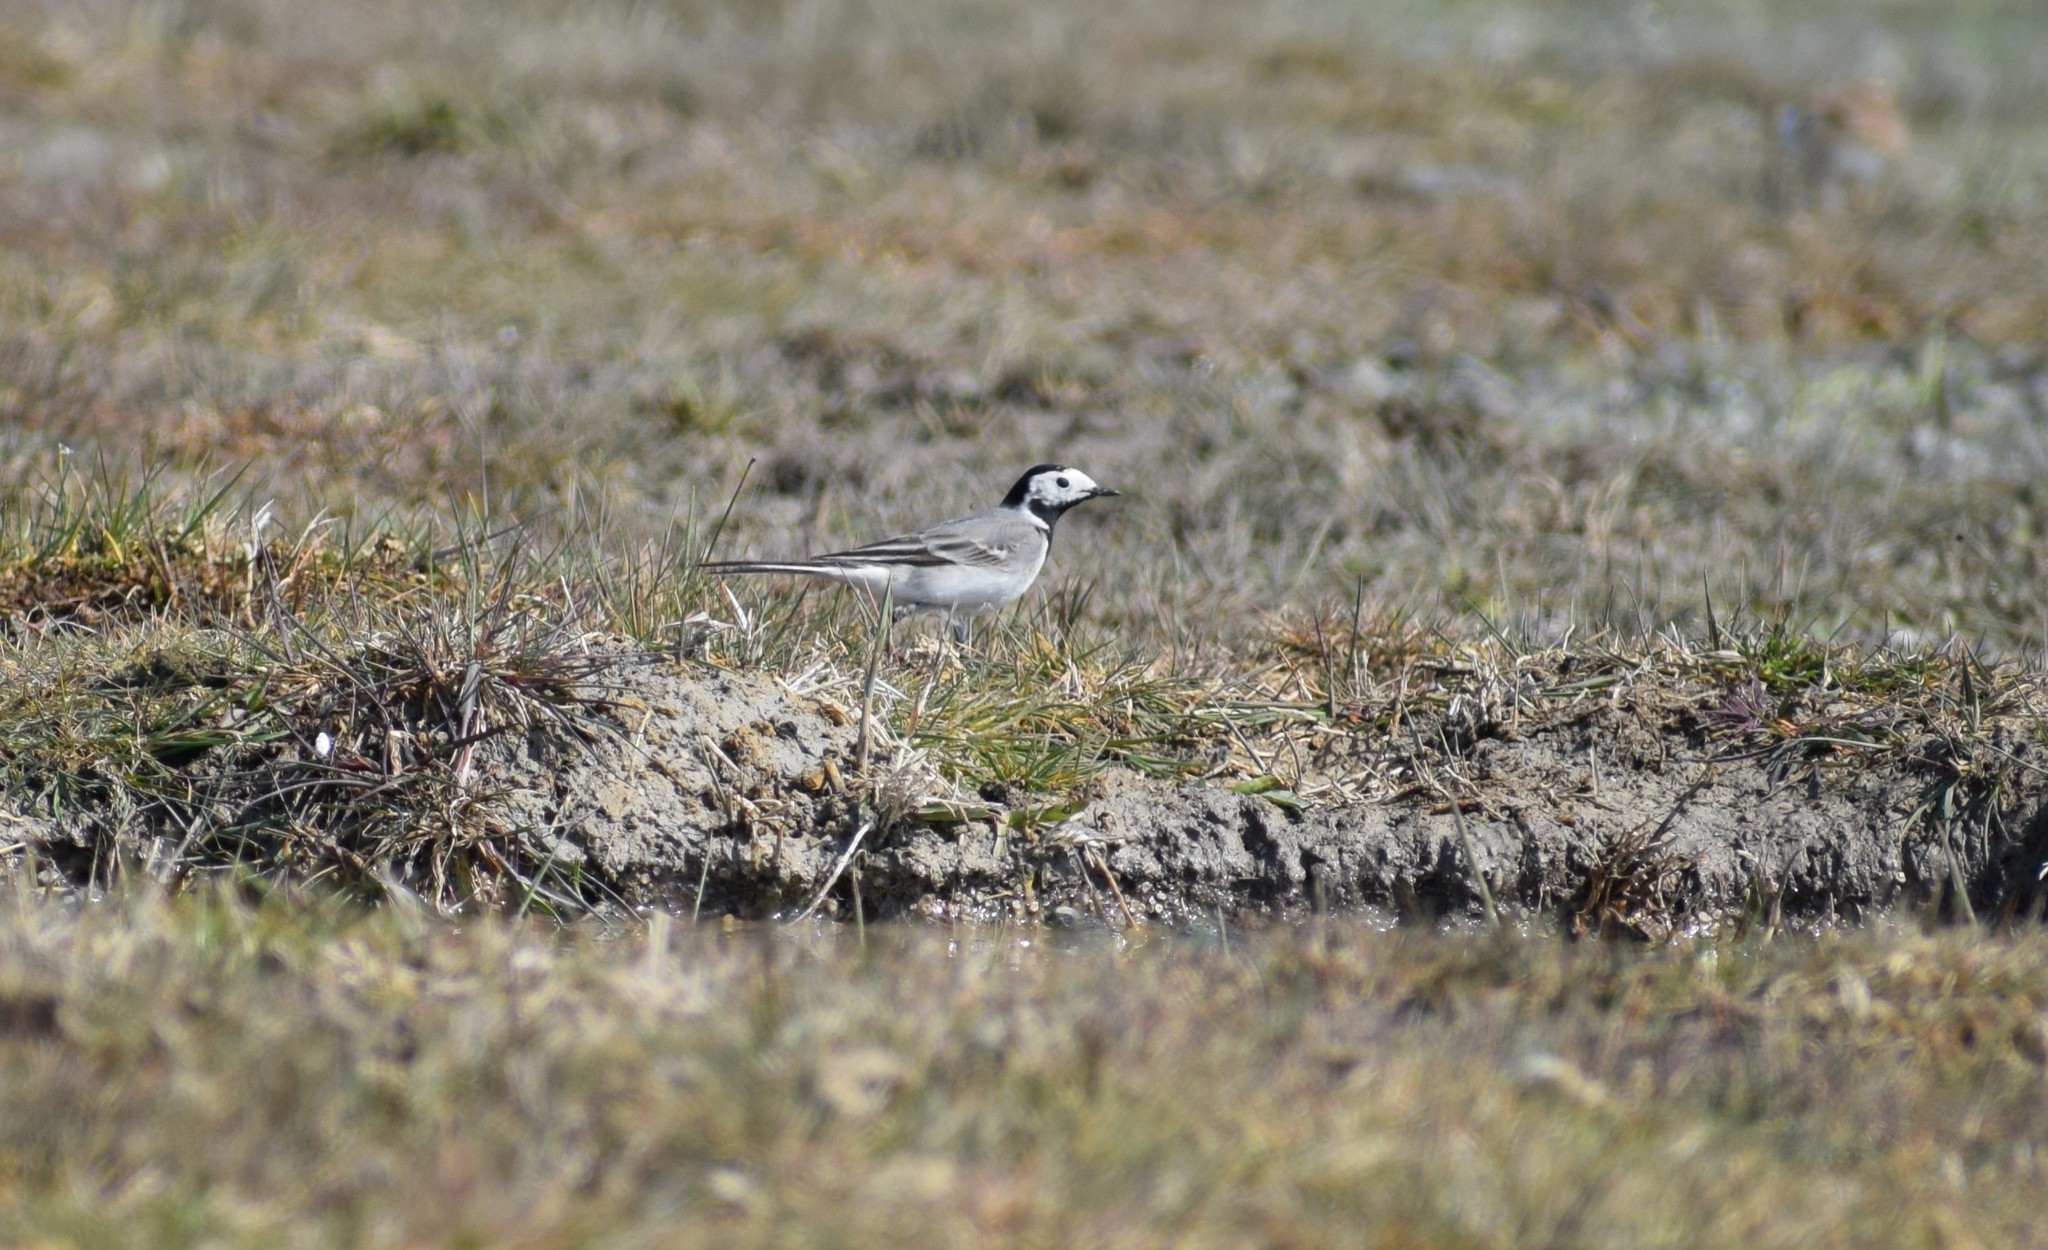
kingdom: Animalia
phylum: Chordata
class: Aves
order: Passeriformes
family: Motacillidae
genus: Motacilla
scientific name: Motacilla alba
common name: White wagtail
